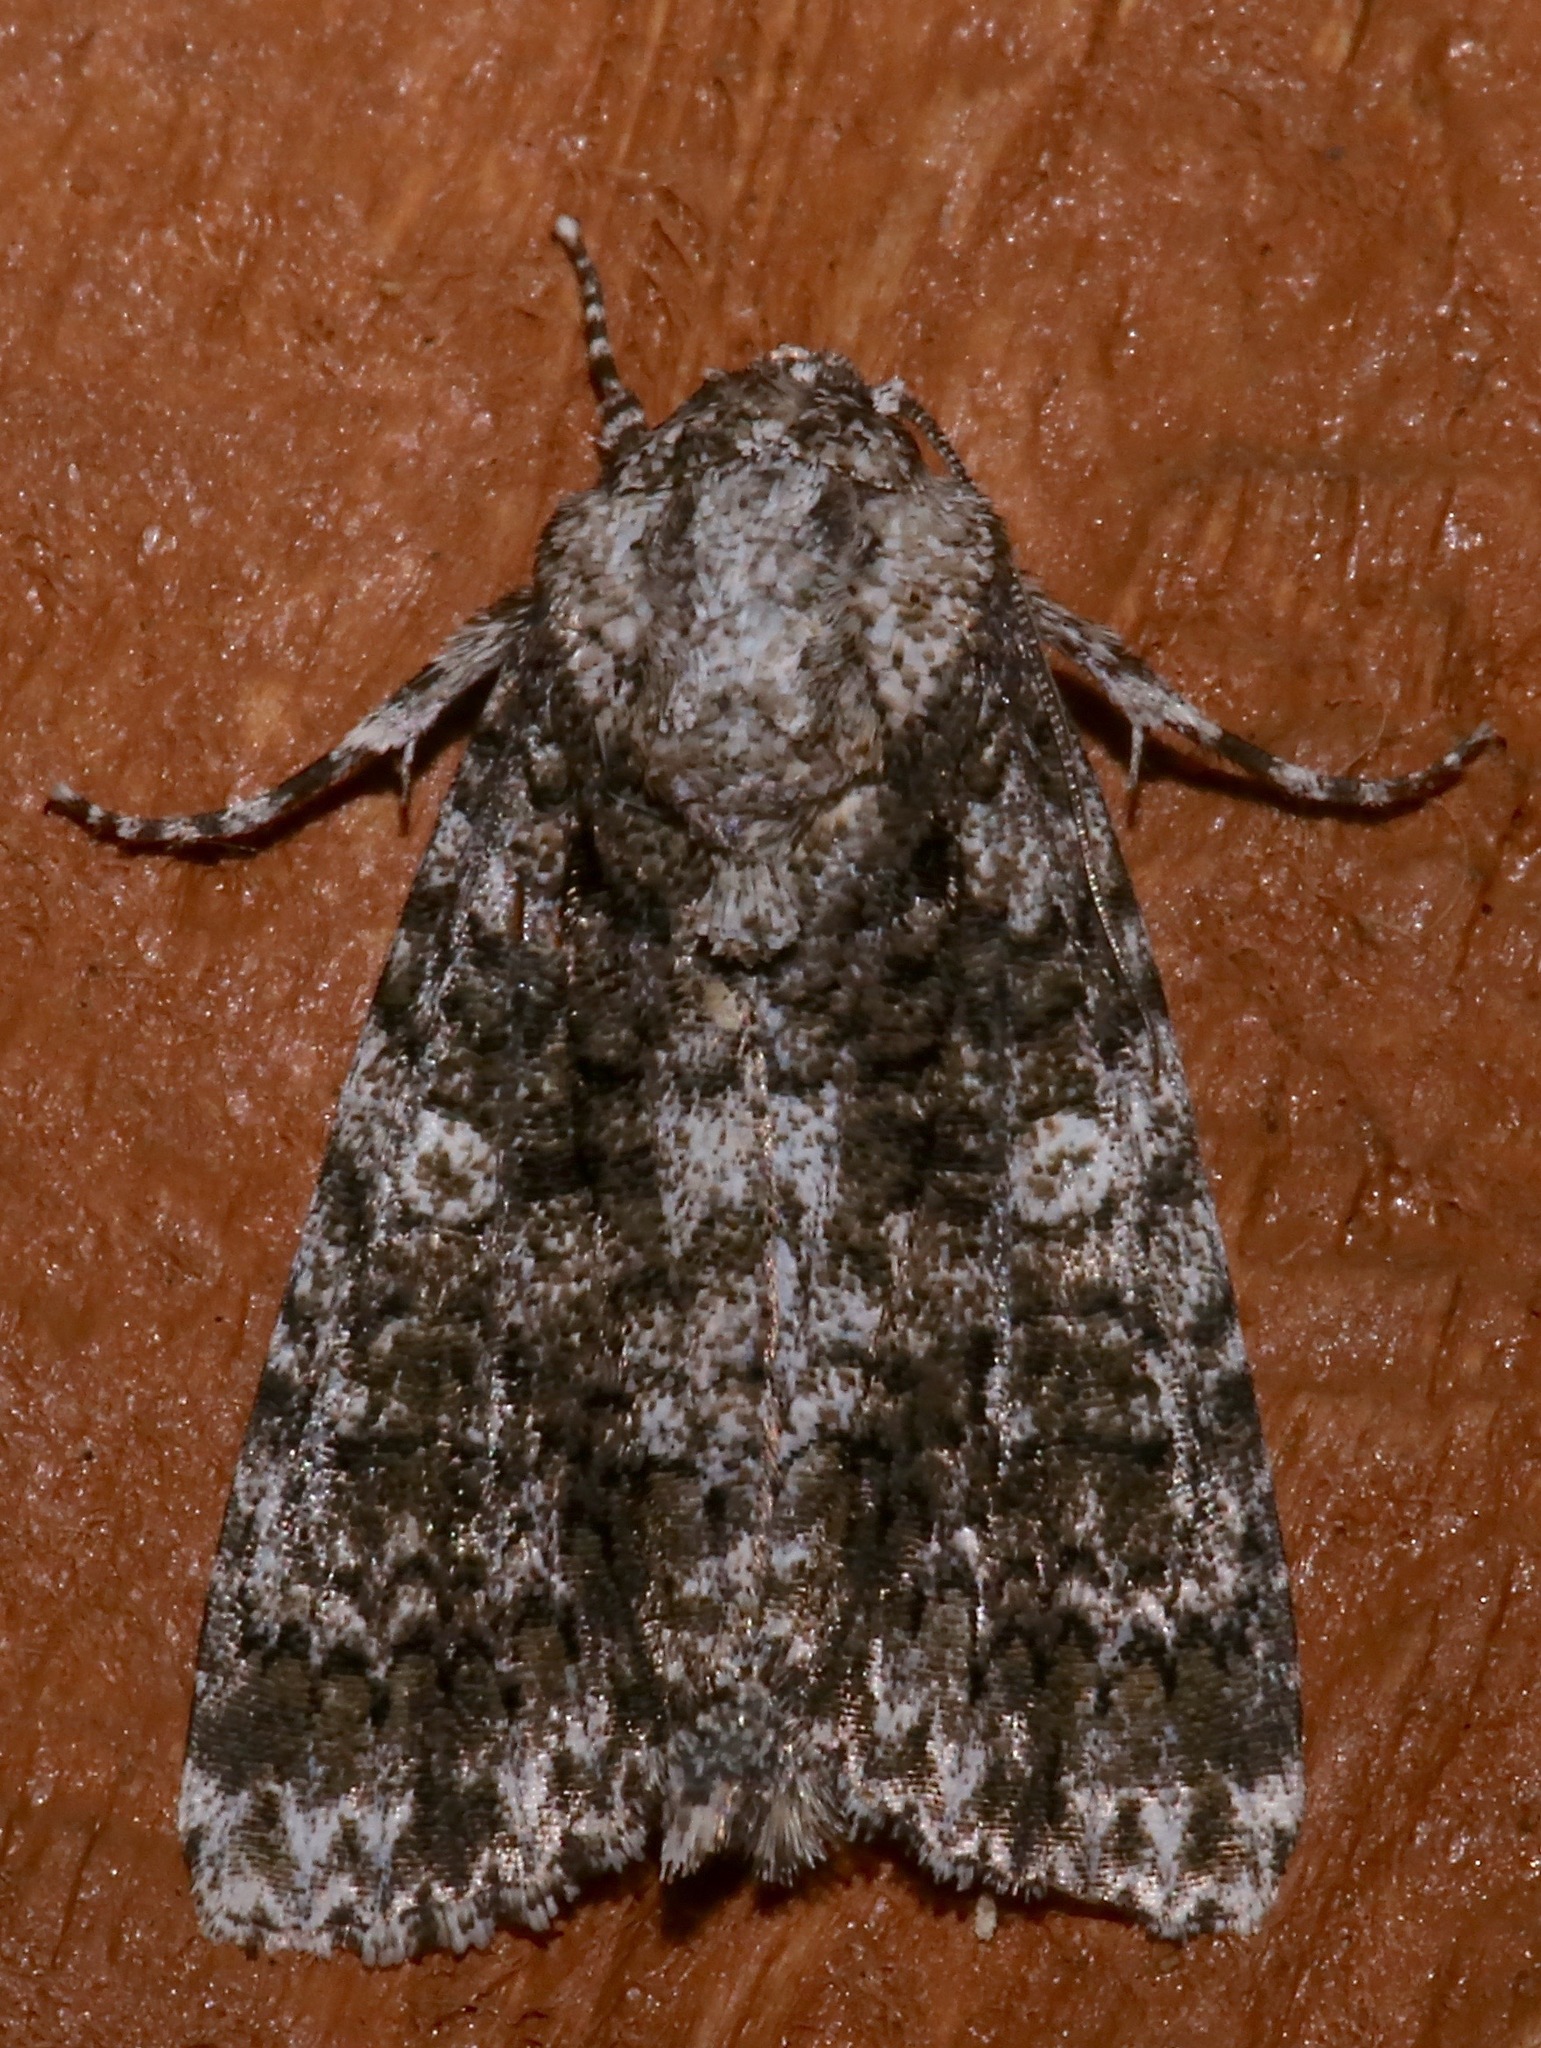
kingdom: Animalia
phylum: Arthropoda
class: Insecta
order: Lepidoptera
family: Noctuidae
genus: Acronicta
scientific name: Acronicta afflicta
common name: Afflicted dagger moth
